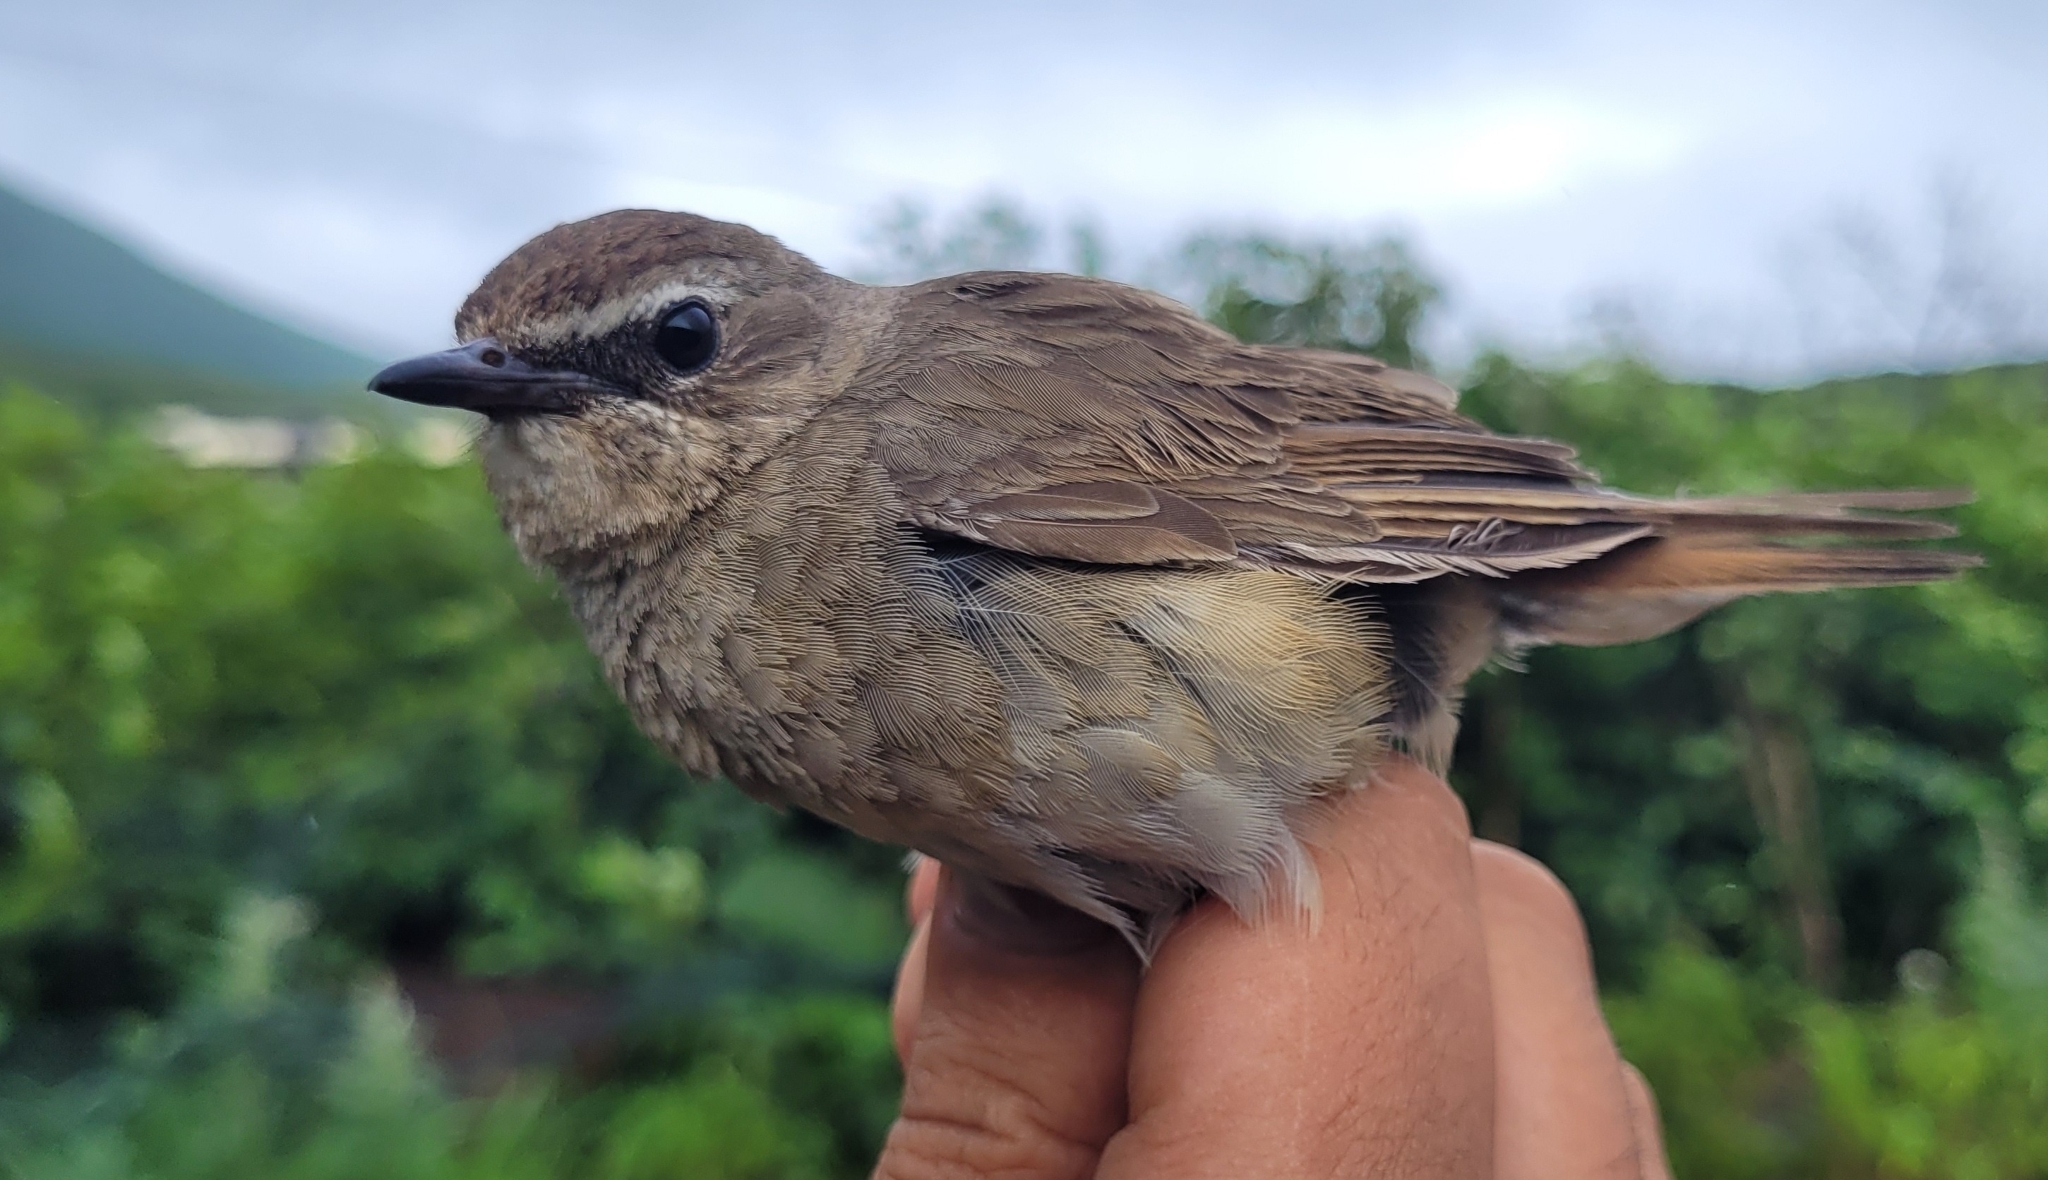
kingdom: Animalia
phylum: Chordata
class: Aves
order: Passeriformes
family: Muscicapidae
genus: Luscinia
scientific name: Luscinia calliope
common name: Siberian rubythroat
